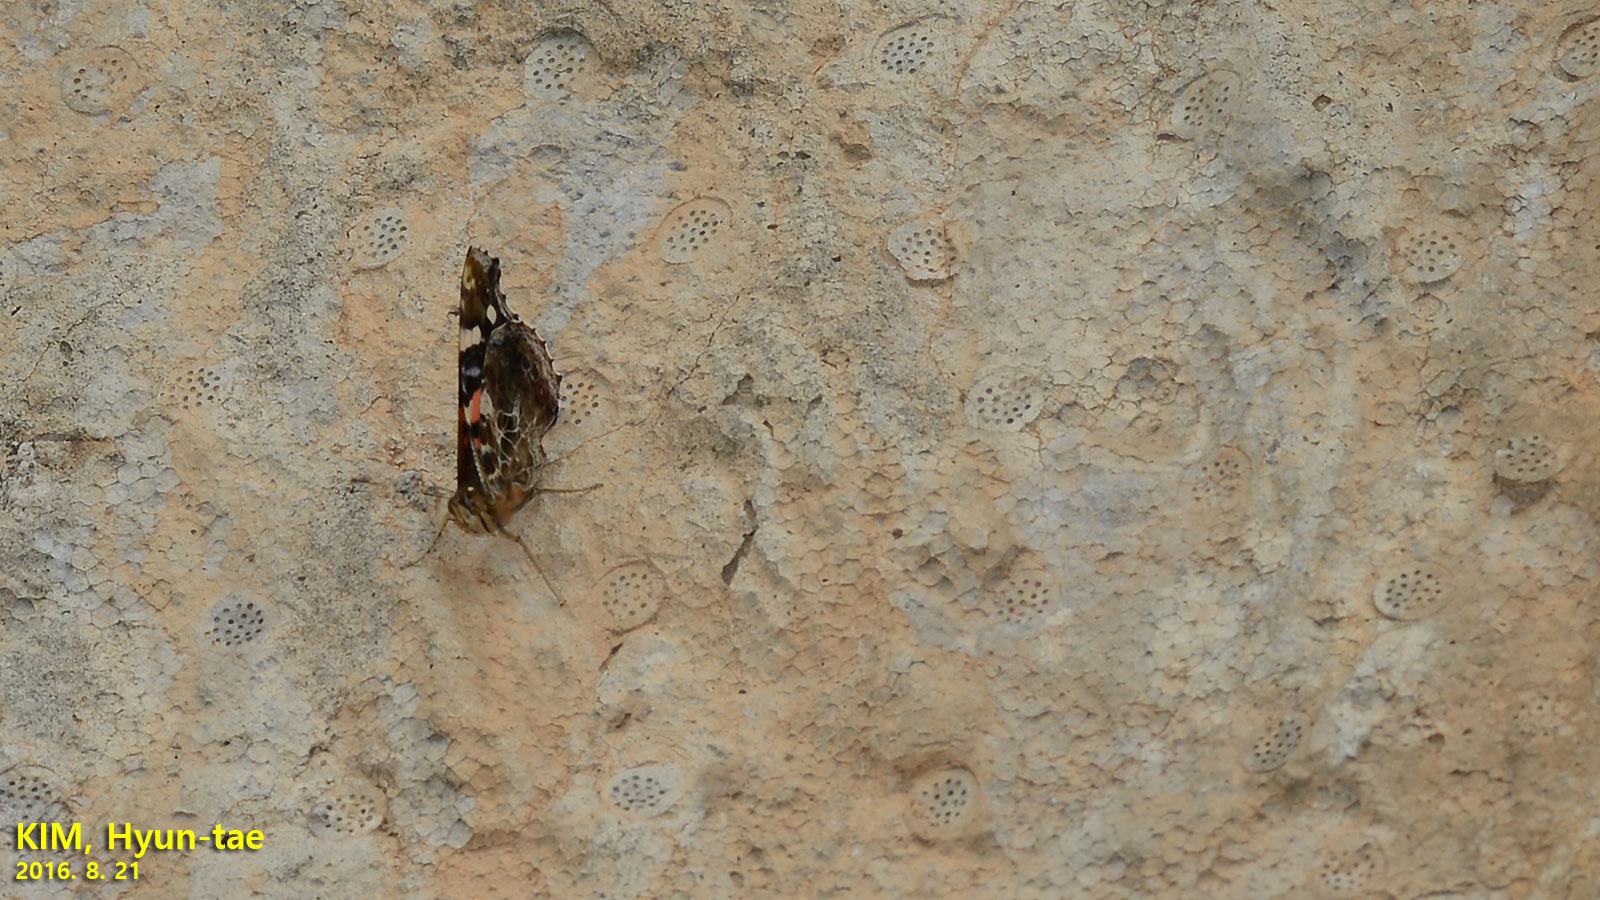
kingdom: Animalia
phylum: Arthropoda
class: Insecta
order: Lepidoptera
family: Nymphalidae
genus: Vanessa
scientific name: Vanessa indica
